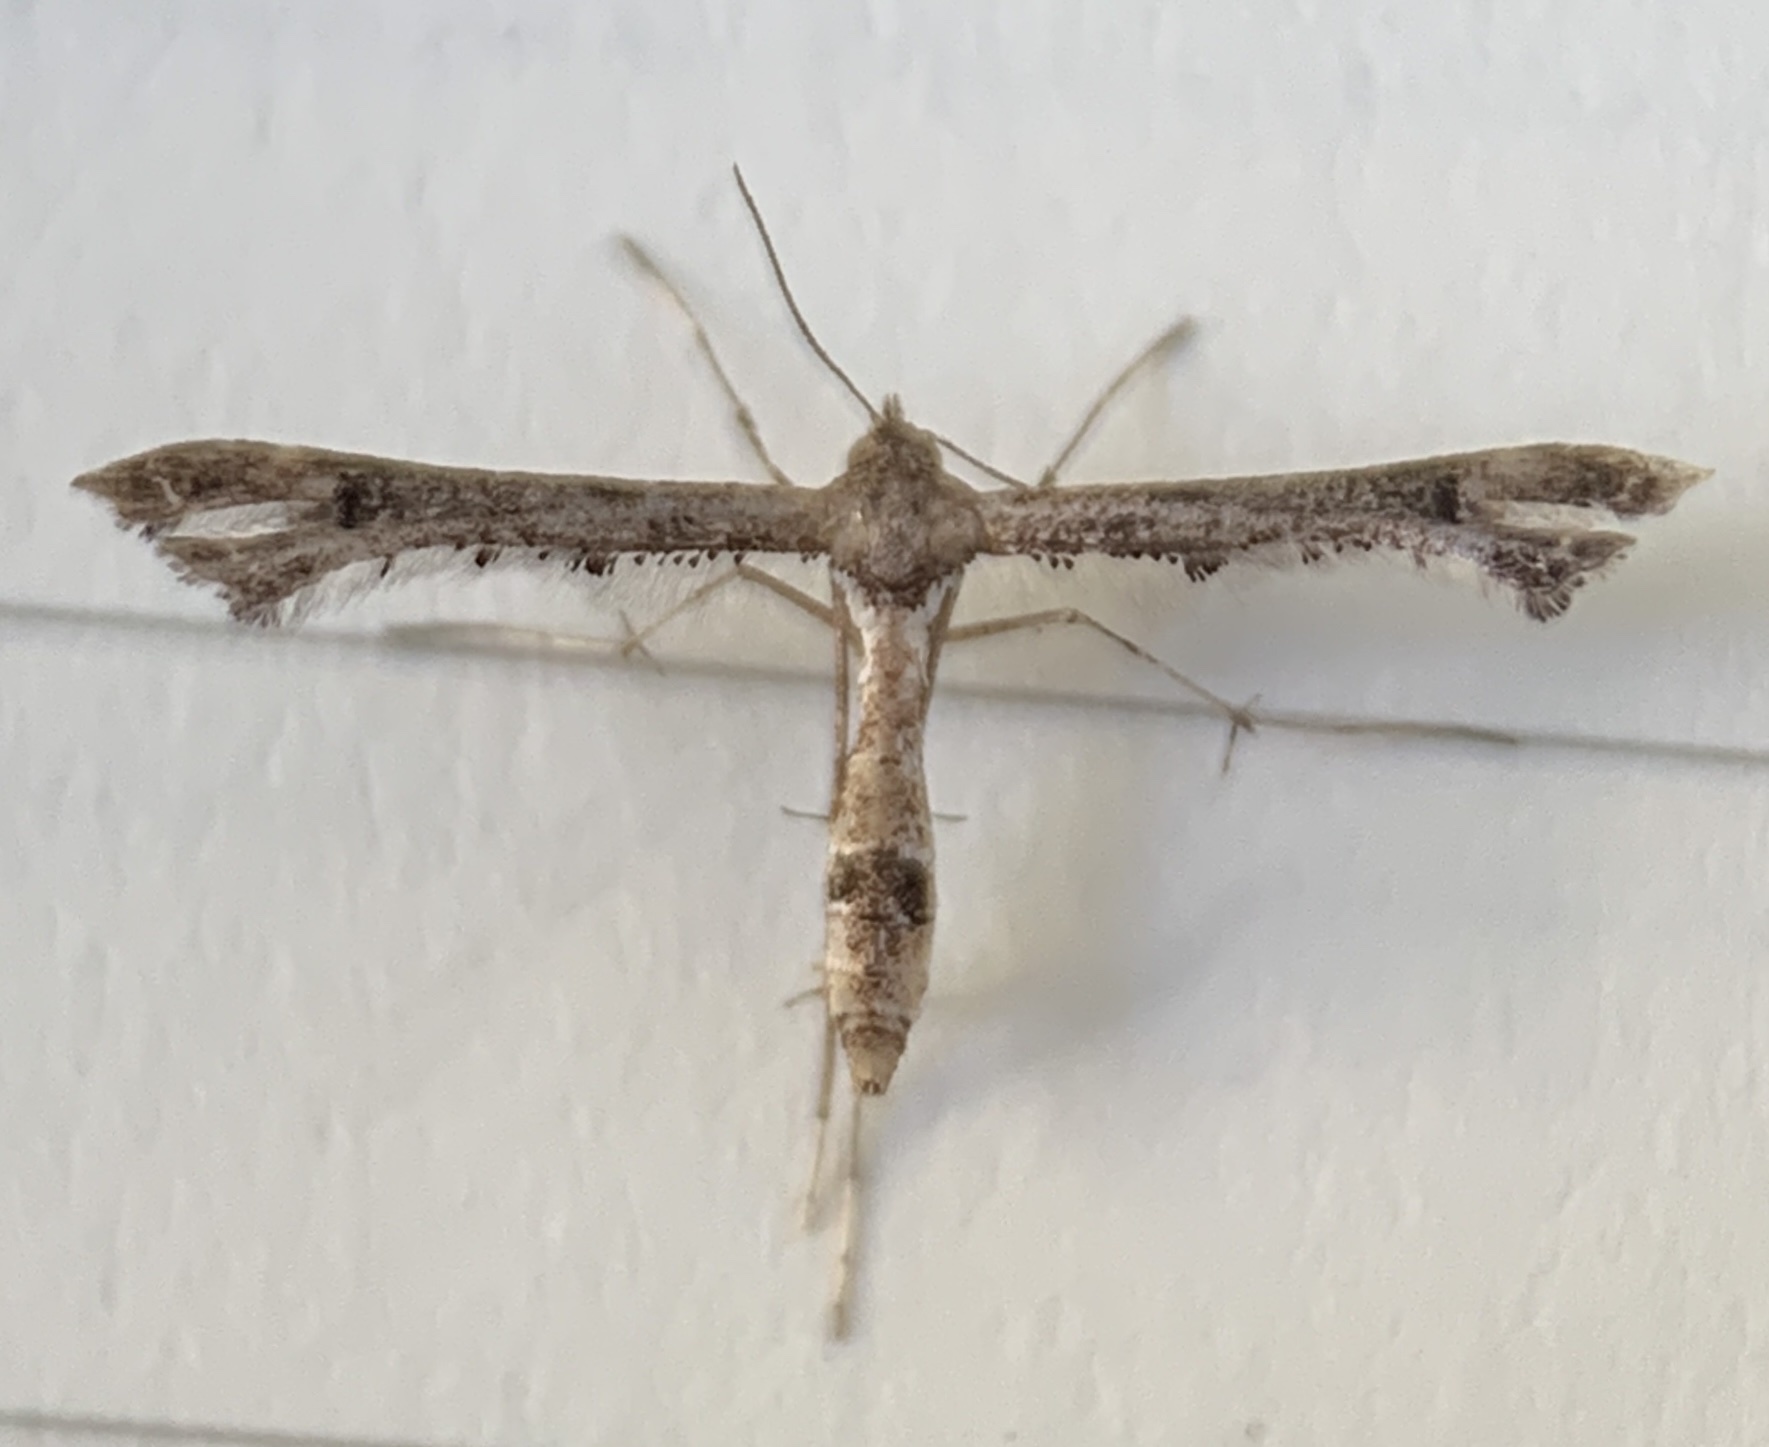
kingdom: Animalia
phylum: Arthropoda
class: Insecta
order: Lepidoptera
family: Pterophoridae
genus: Lantanophaga
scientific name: Lantanophaga pusillidactylus
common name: Moth
